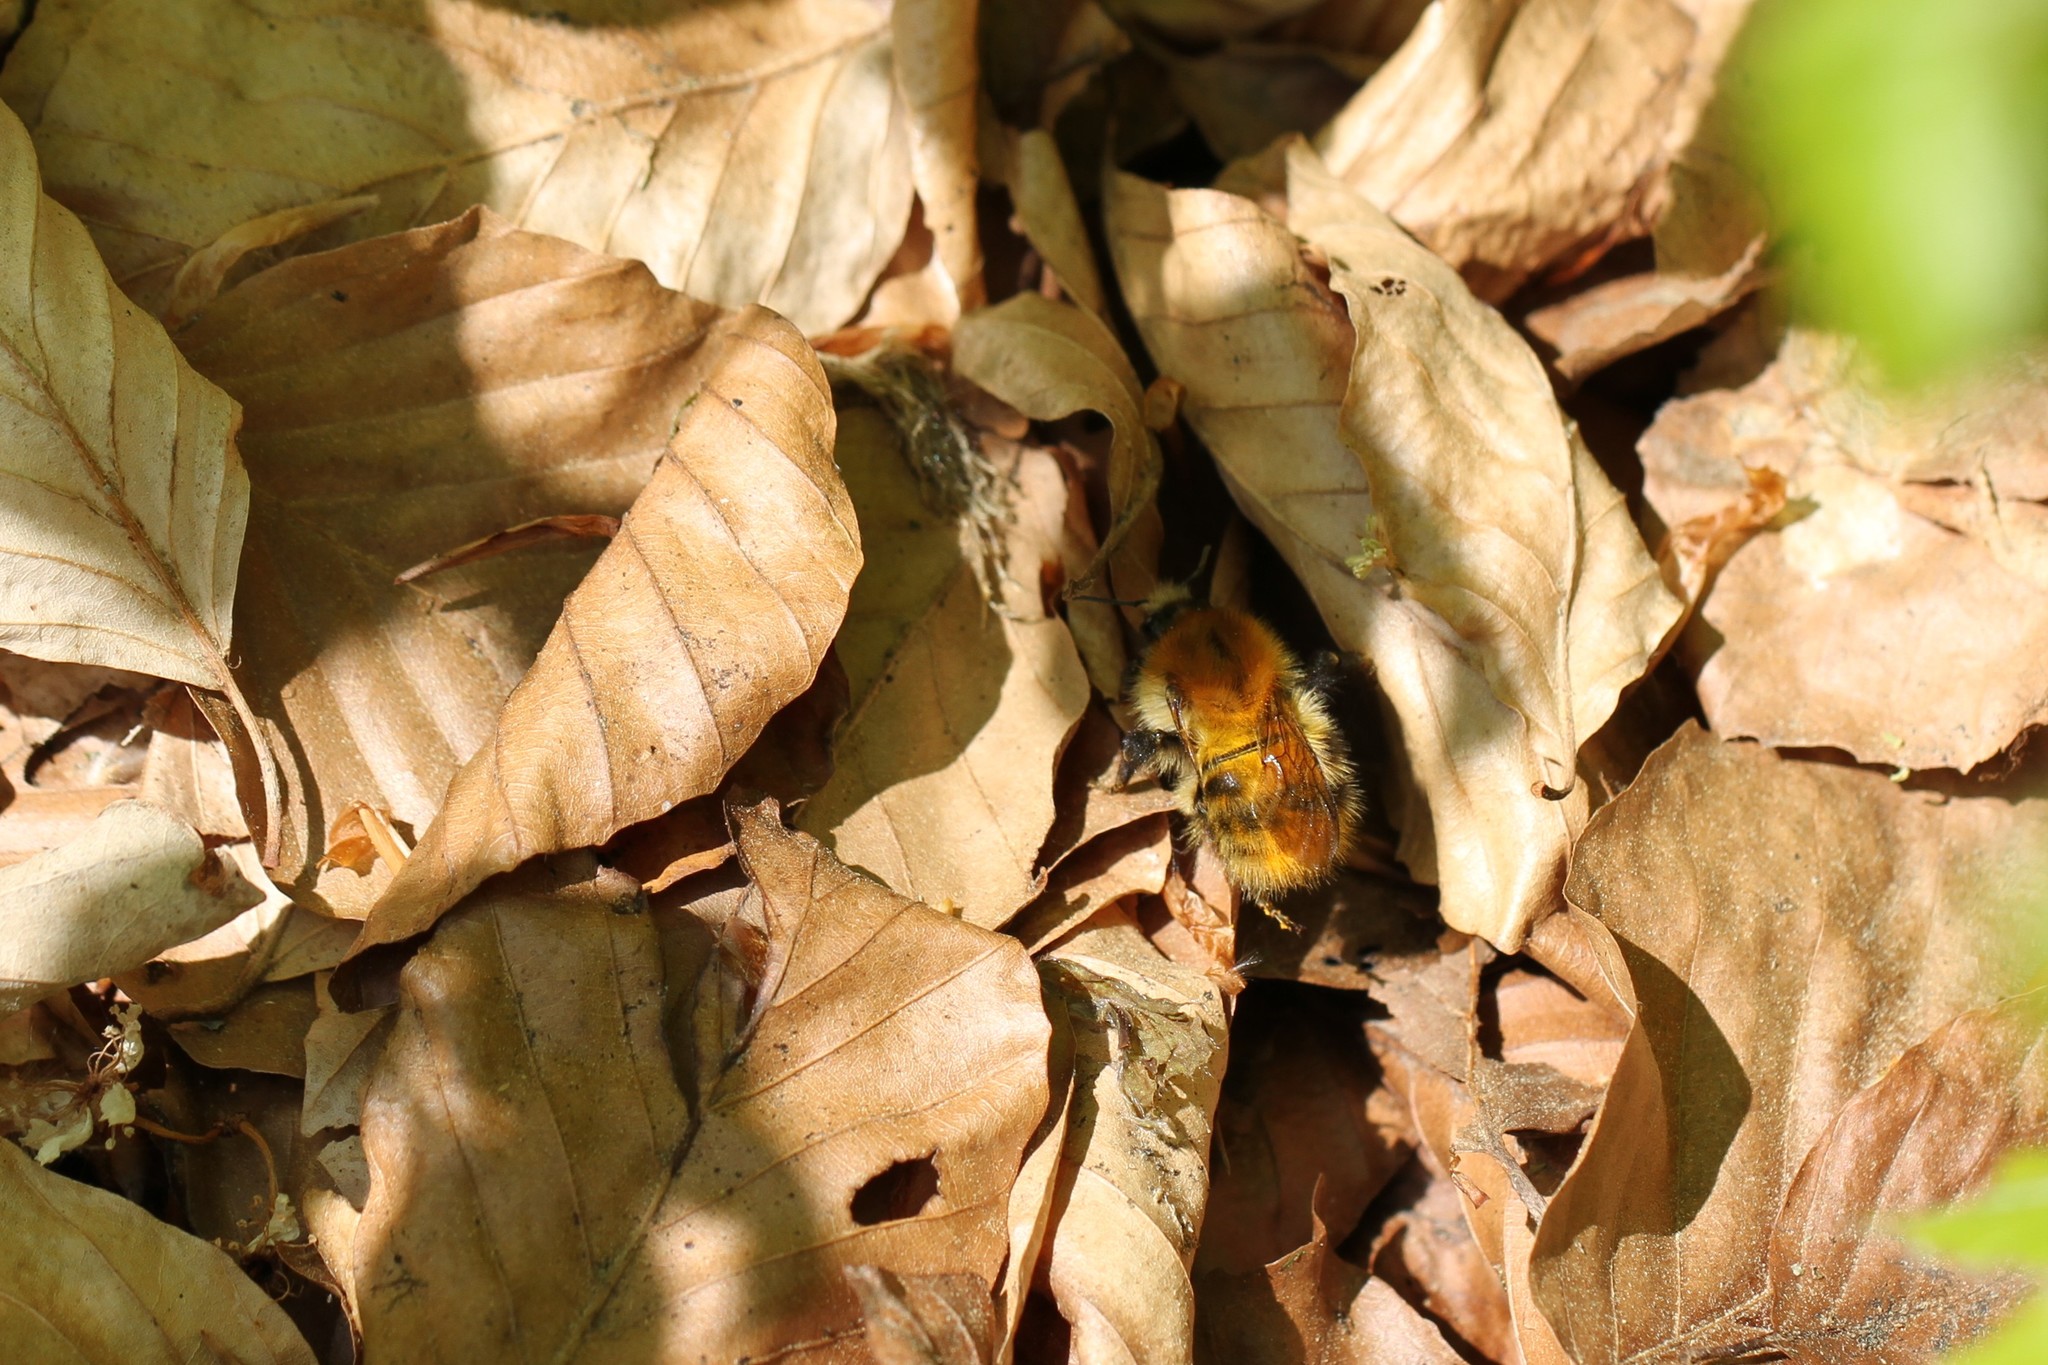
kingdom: Animalia
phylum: Arthropoda
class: Insecta
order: Hymenoptera
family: Apidae
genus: Bombus
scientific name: Bombus pascuorum
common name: Common carder bee
